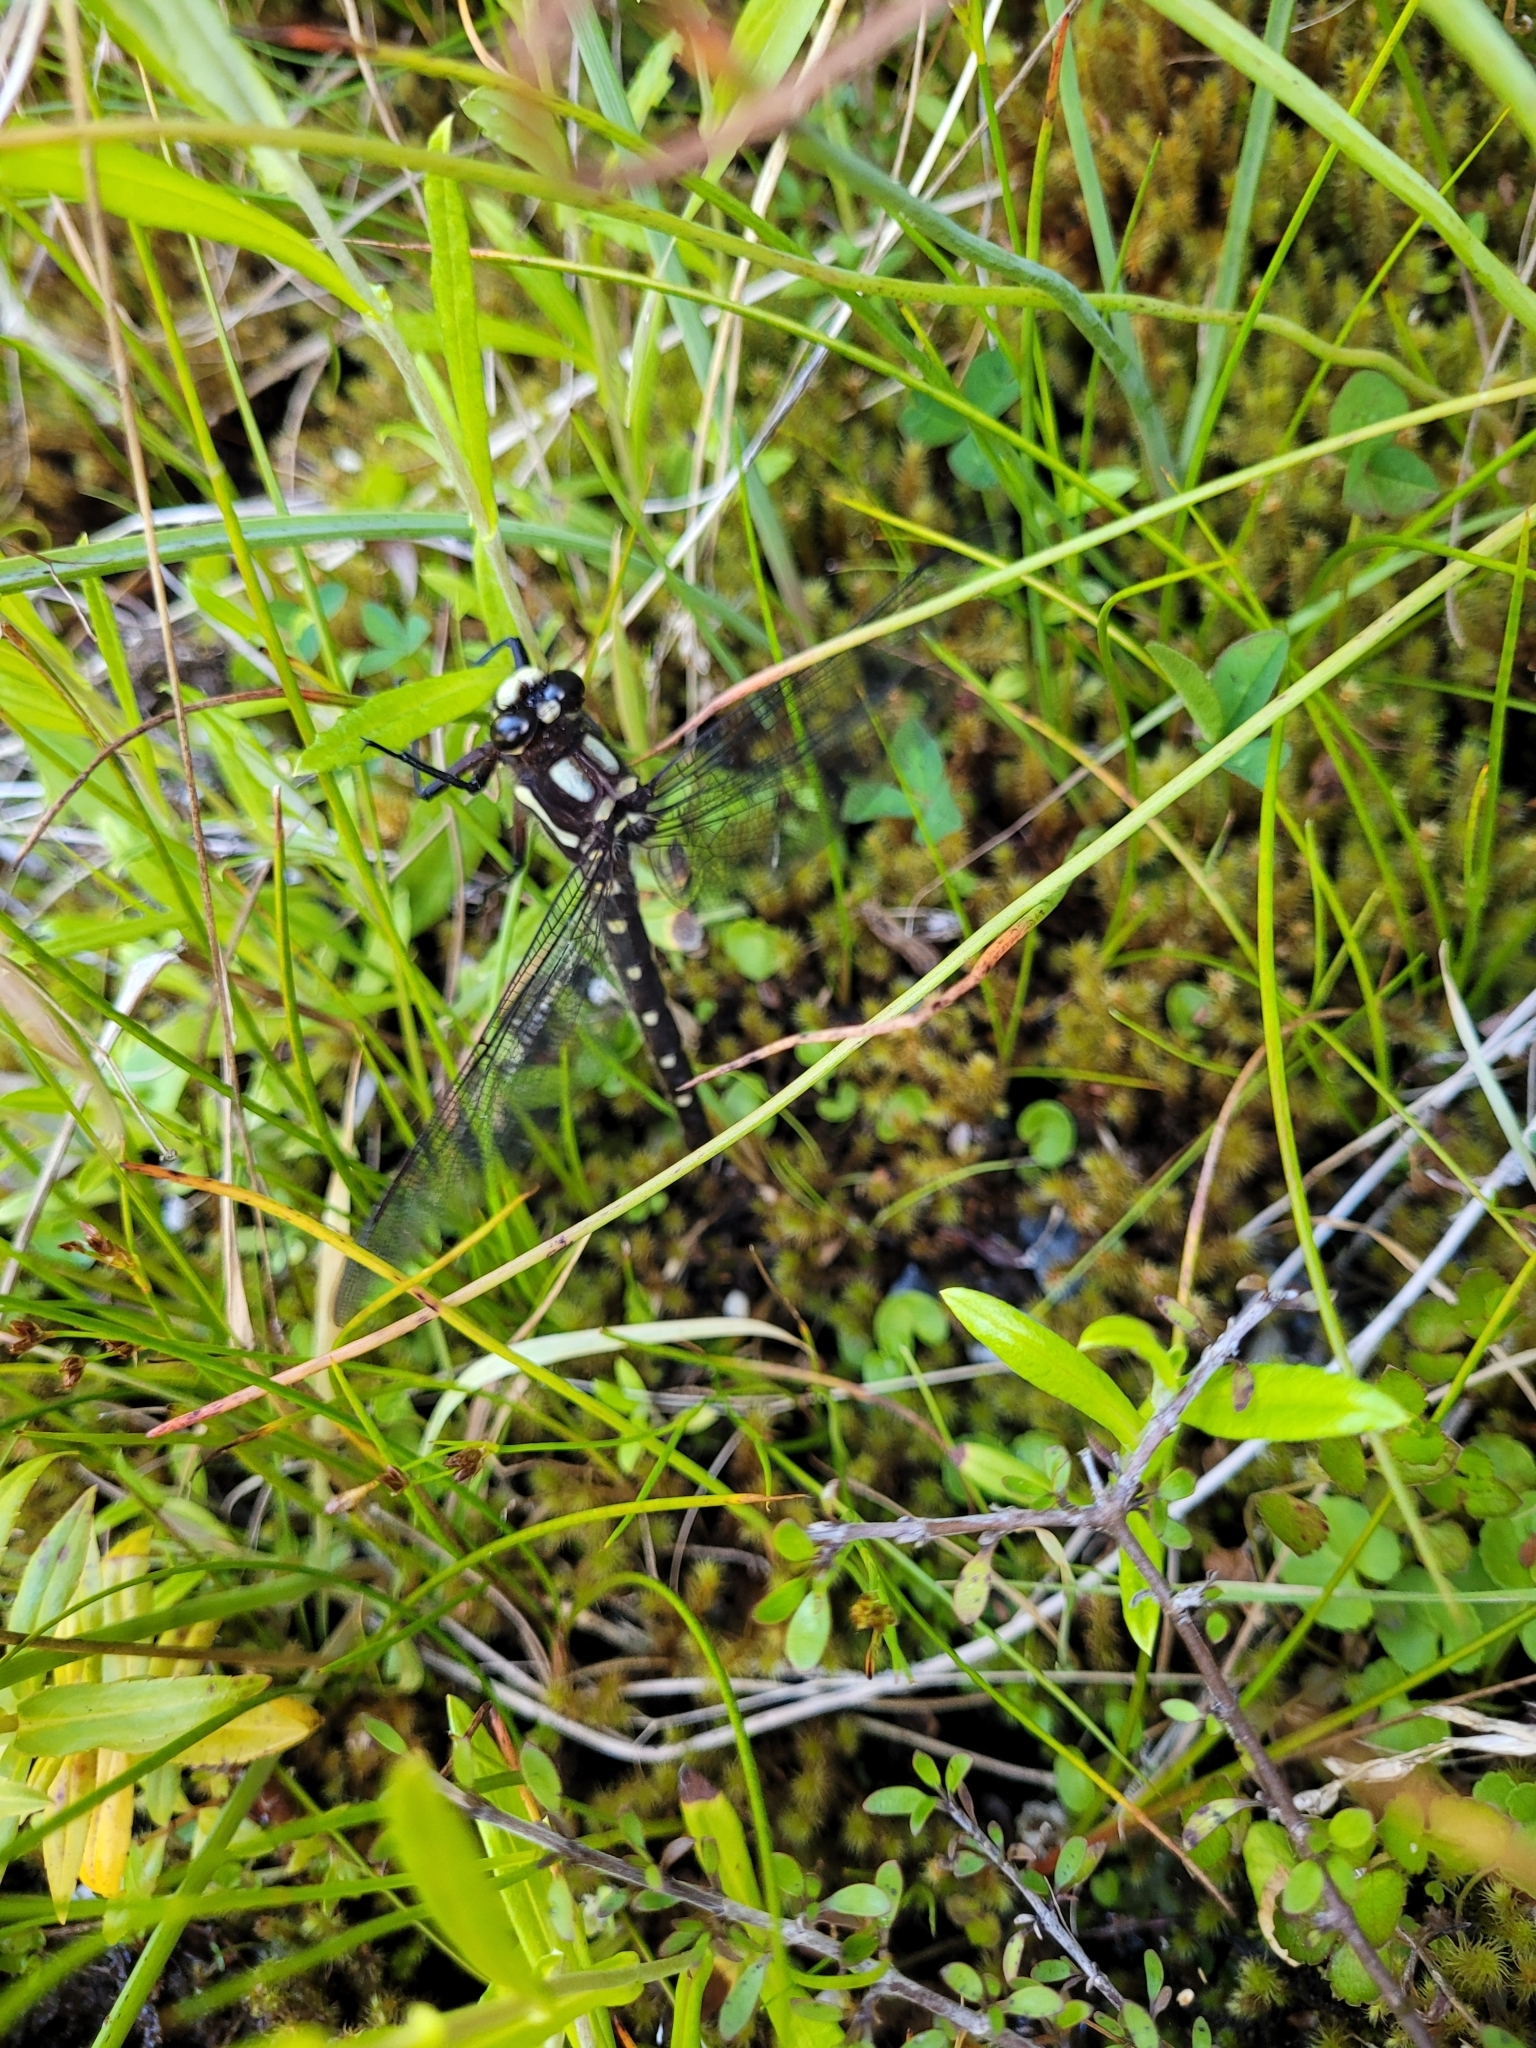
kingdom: Animalia
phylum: Arthropoda
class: Insecta
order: Odonata
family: Petaluridae
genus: Uropetala
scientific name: Uropetala carovei
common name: Bush giant dragonfly
